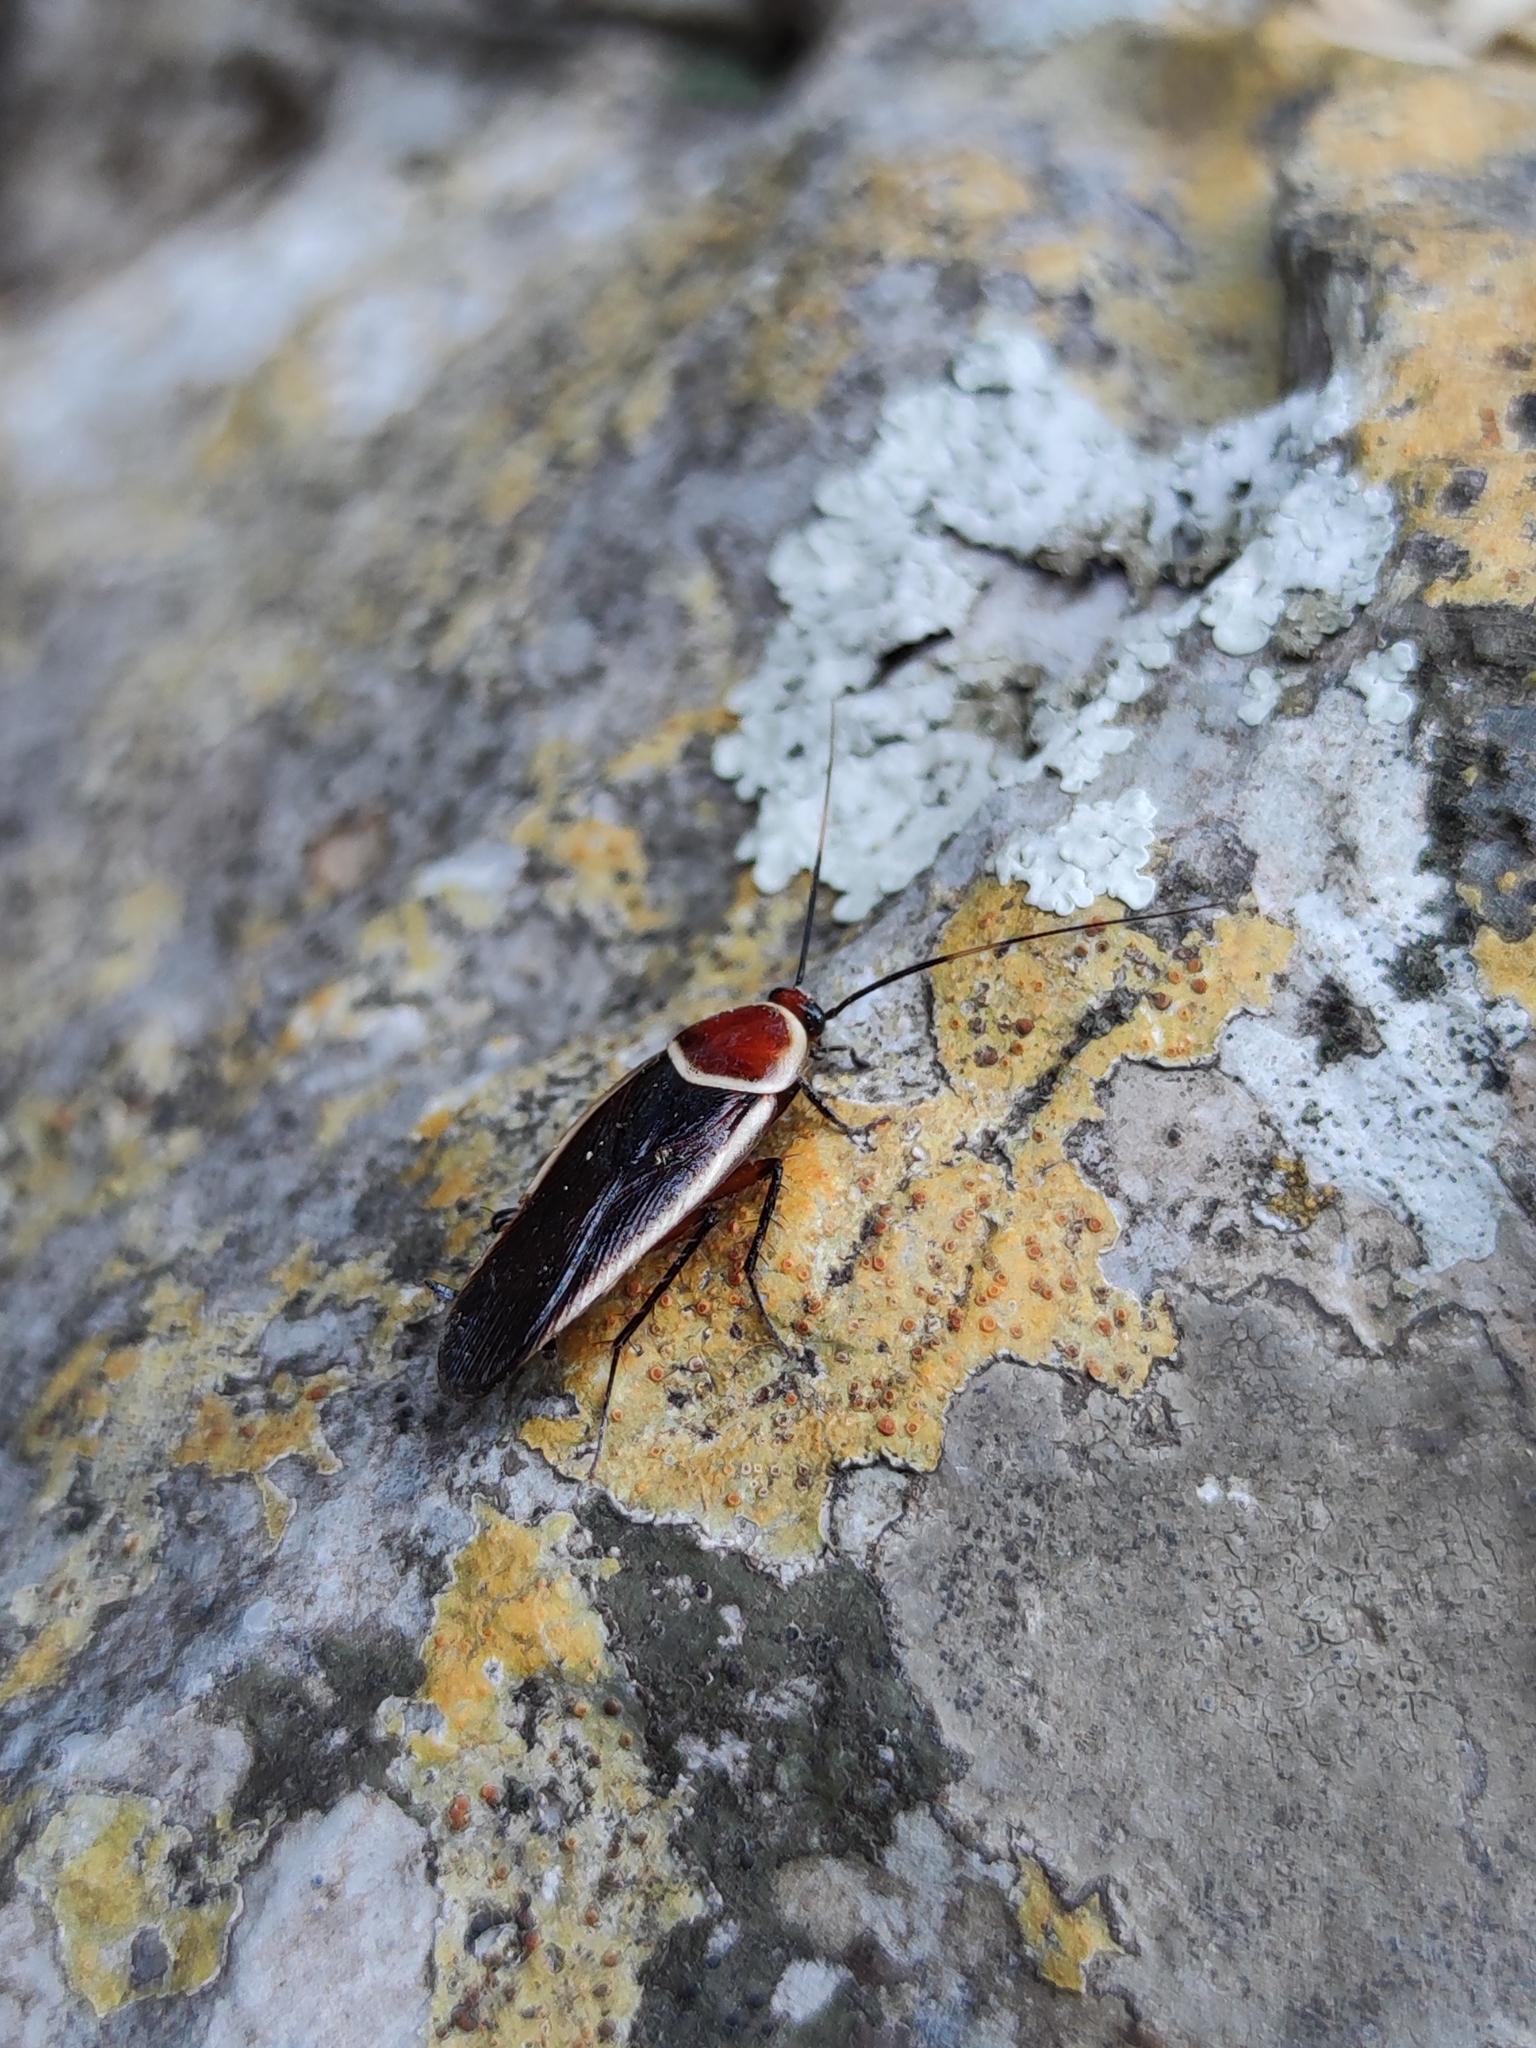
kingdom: Animalia
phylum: Arthropoda
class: Insecta
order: Blattodea
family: Ectobiidae
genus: Pseudomops
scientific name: Pseudomops septentrionalis
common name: Pale-bordered field cockroach
